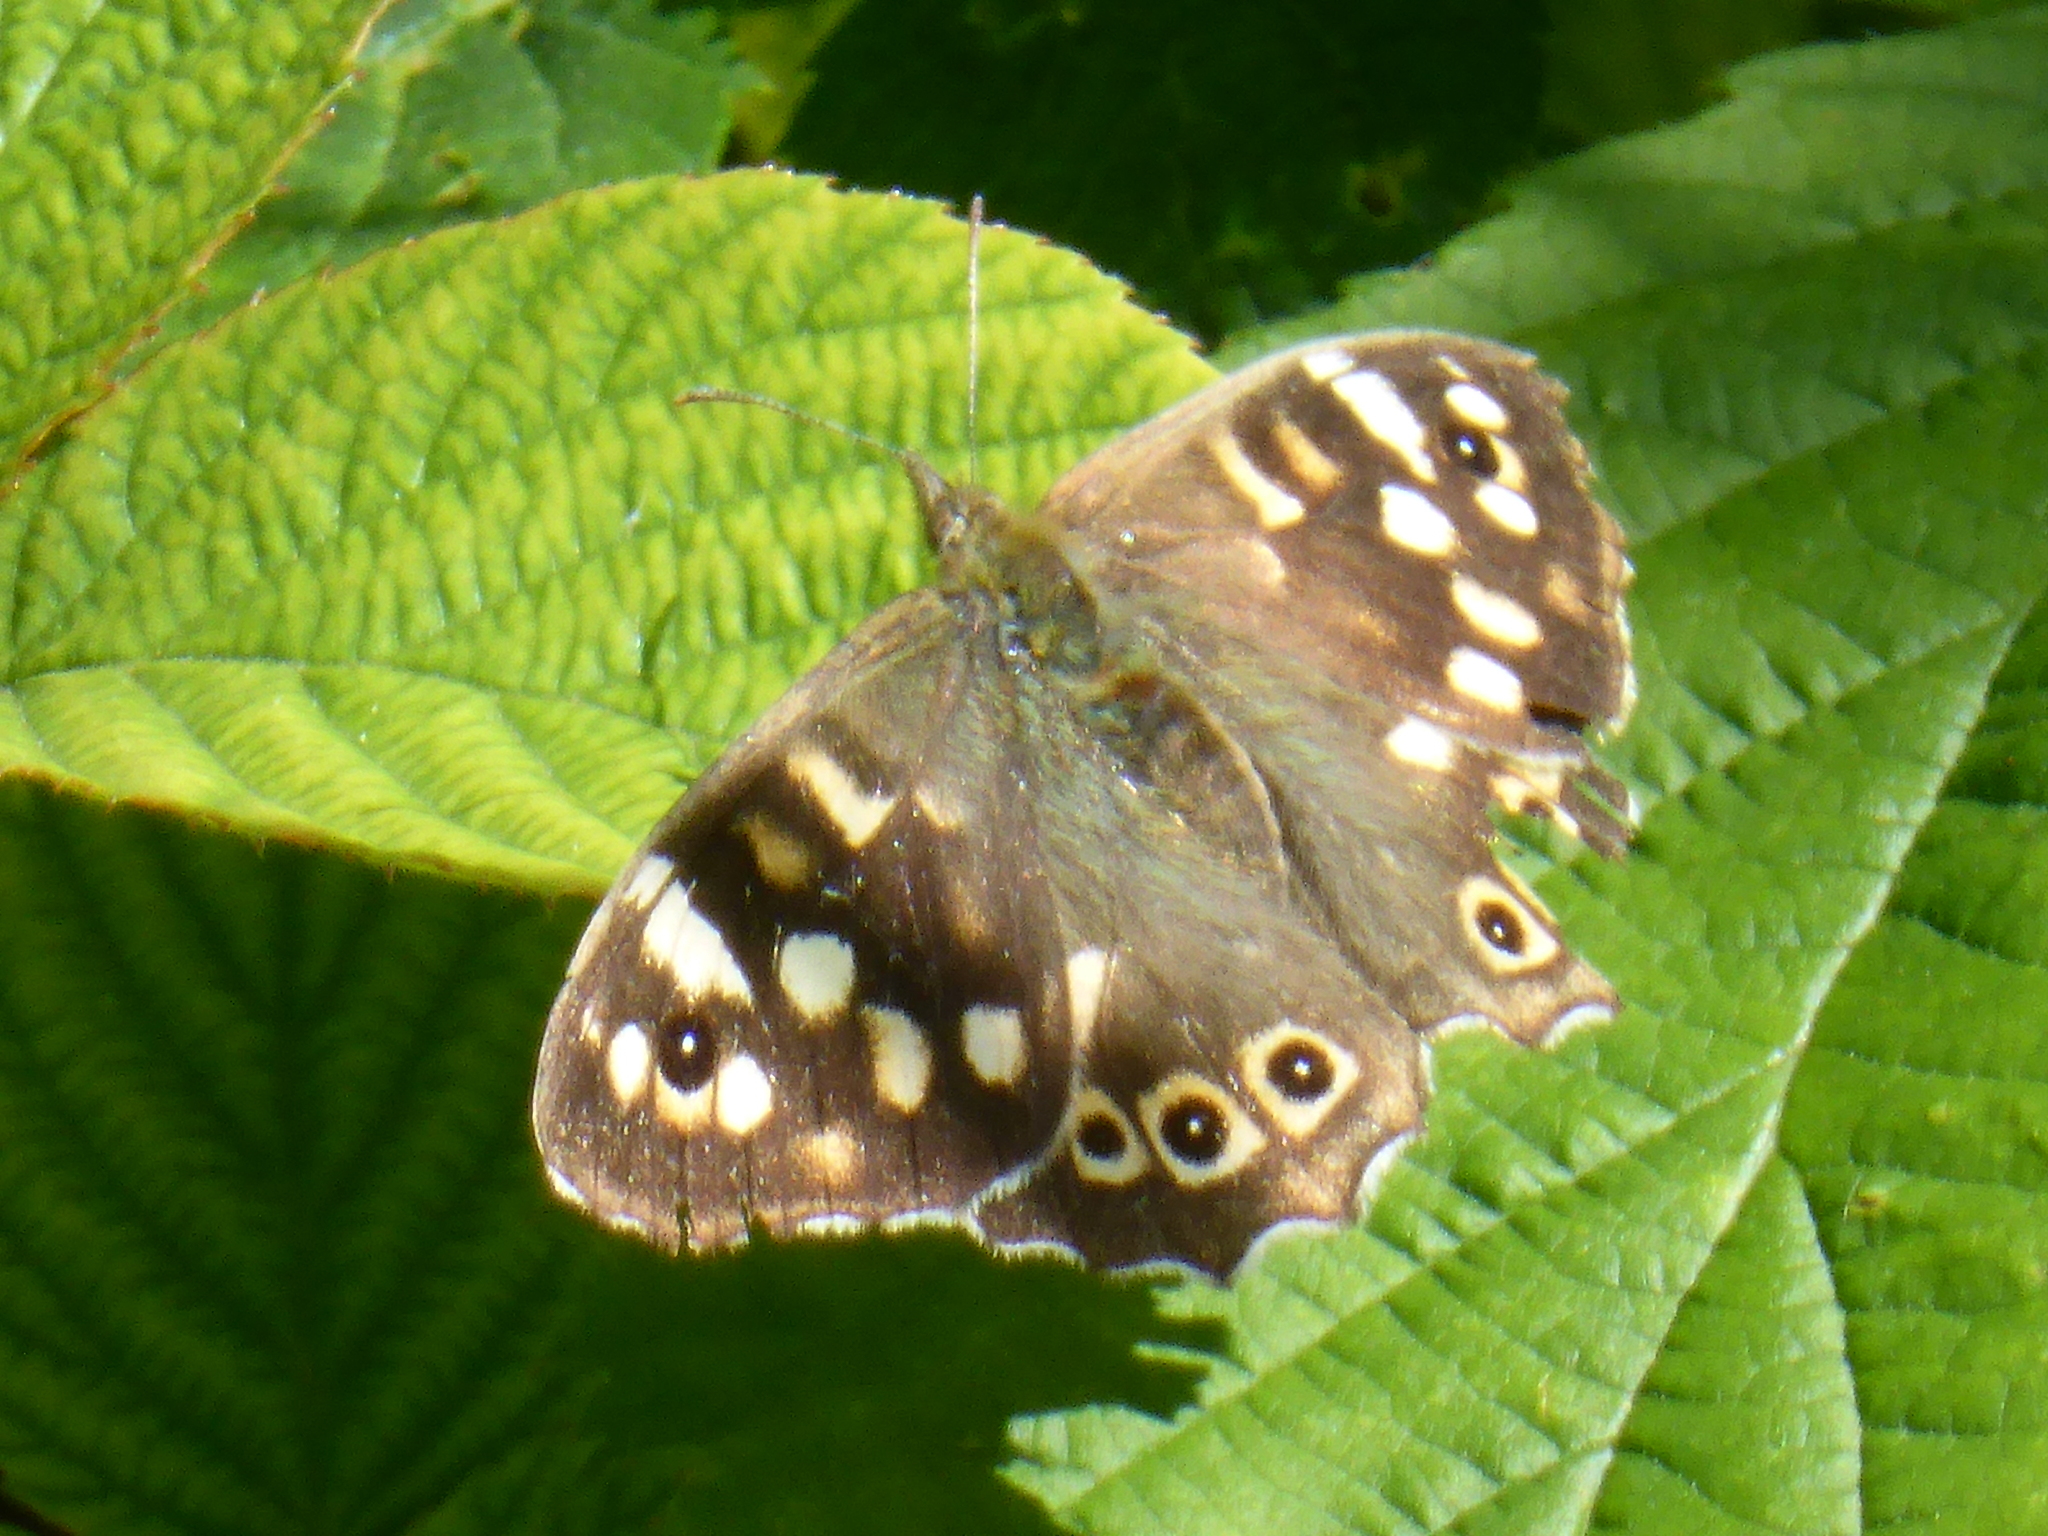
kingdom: Animalia
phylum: Arthropoda
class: Insecta
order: Lepidoptera
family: Nymphalidae
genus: Pararge
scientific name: Pararge aegeria
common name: Speckled wood
